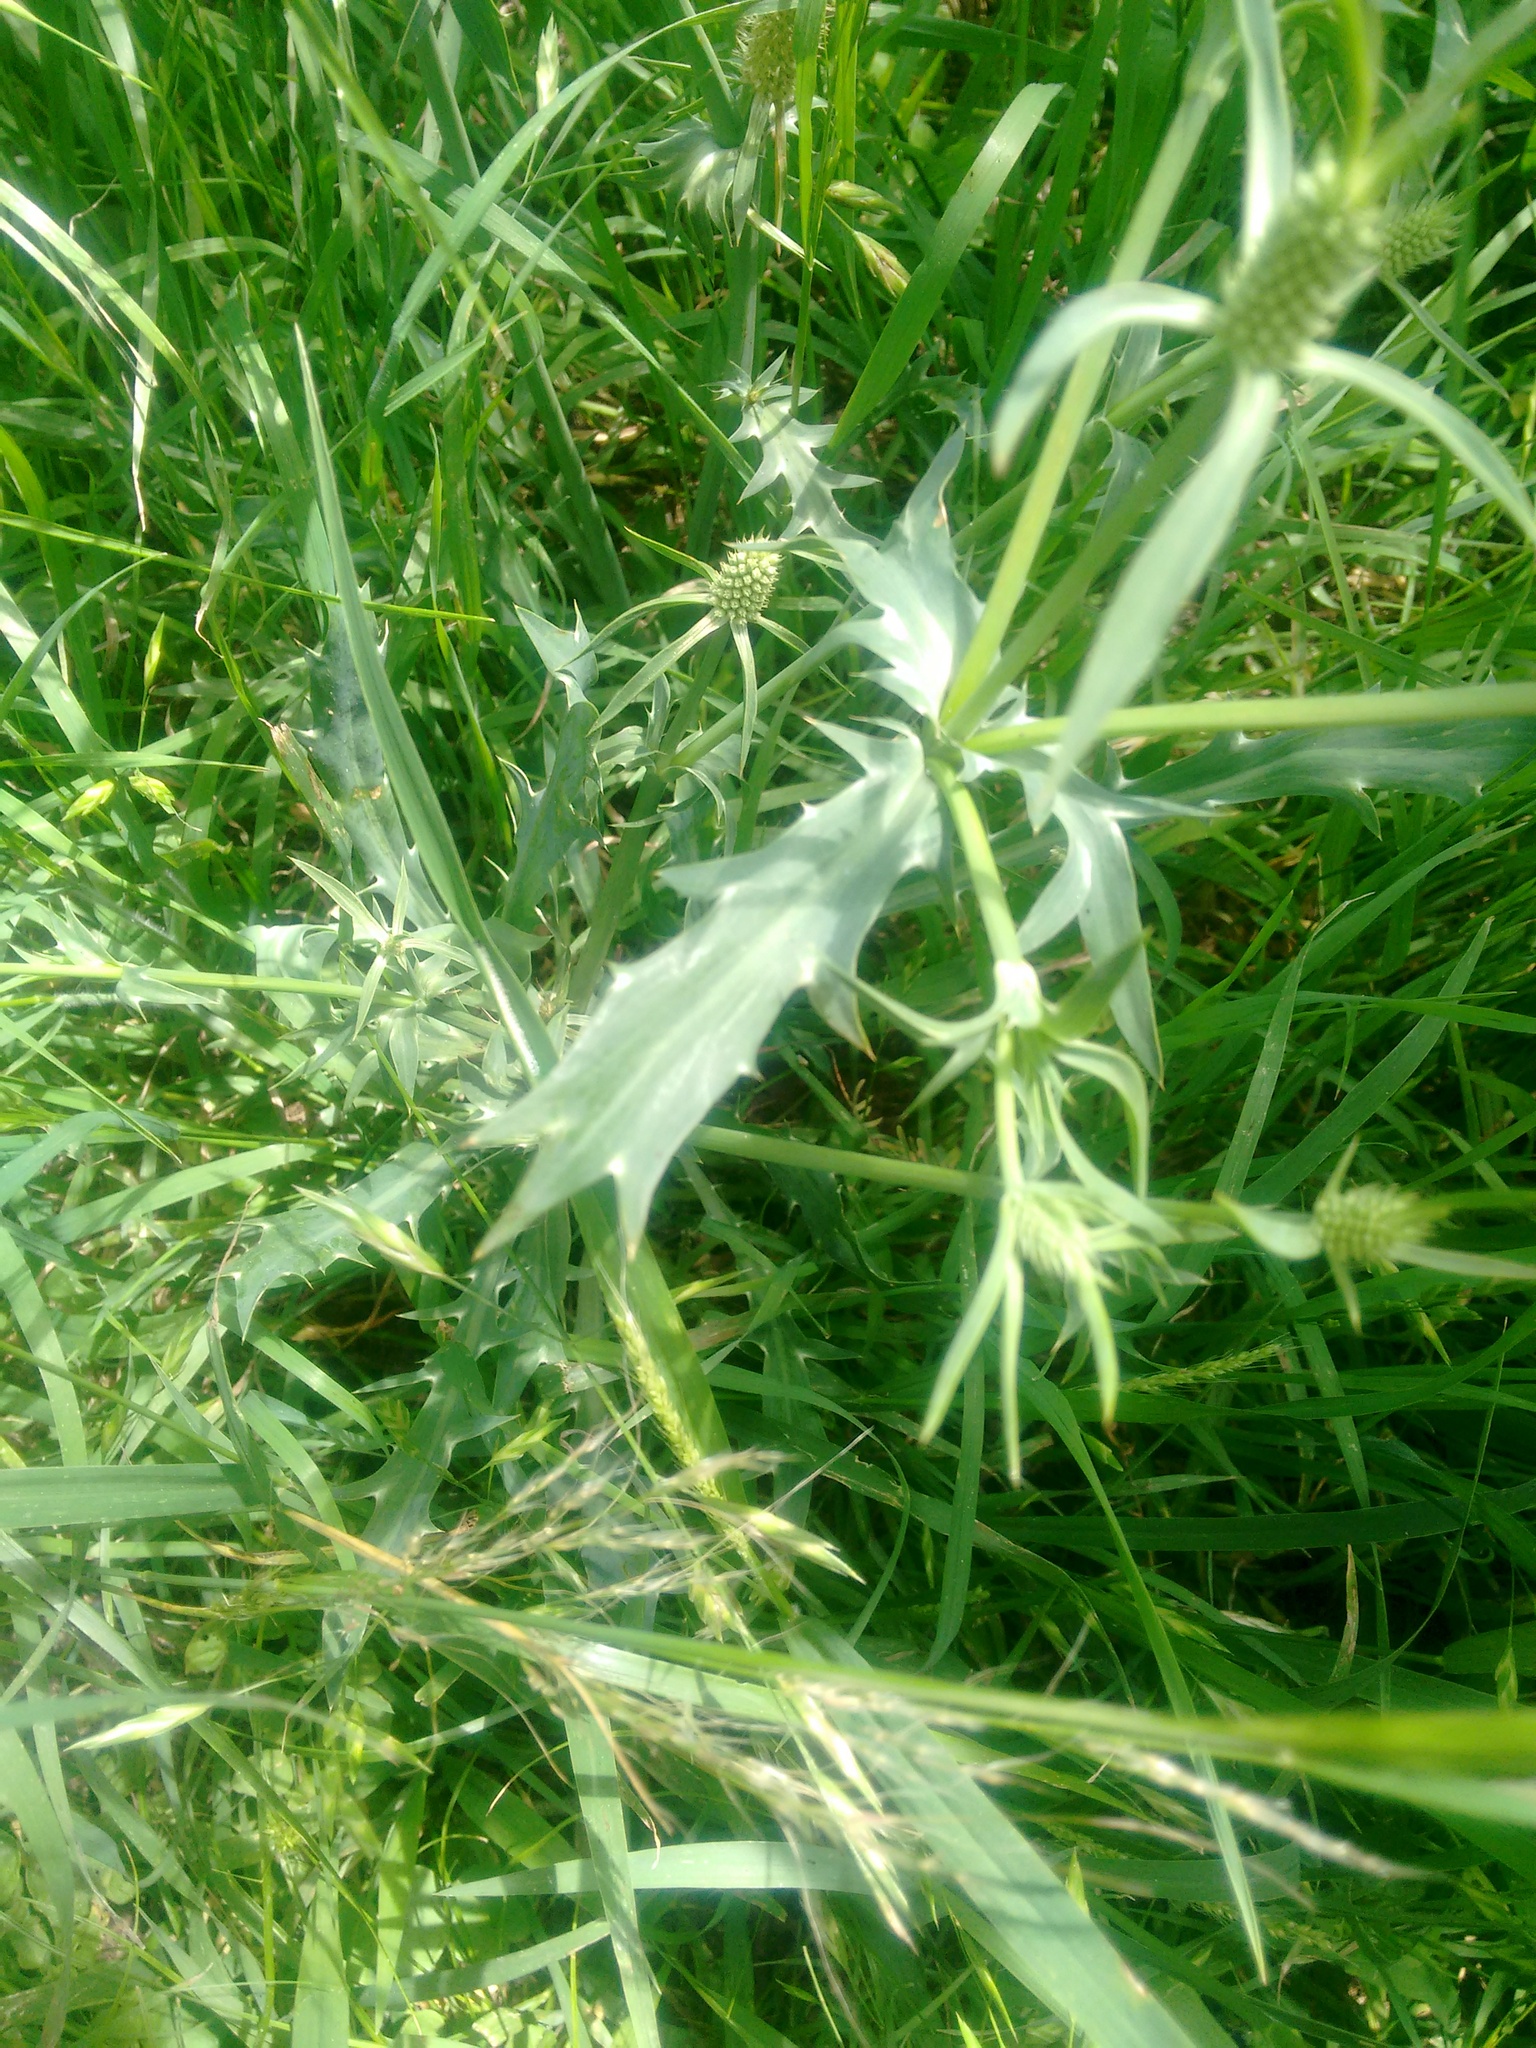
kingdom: Plantae
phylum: Tracheophyta
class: Magnoliopsida
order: Apiales
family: Apiaceae
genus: Eryngium
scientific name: Eryngium coronatum
